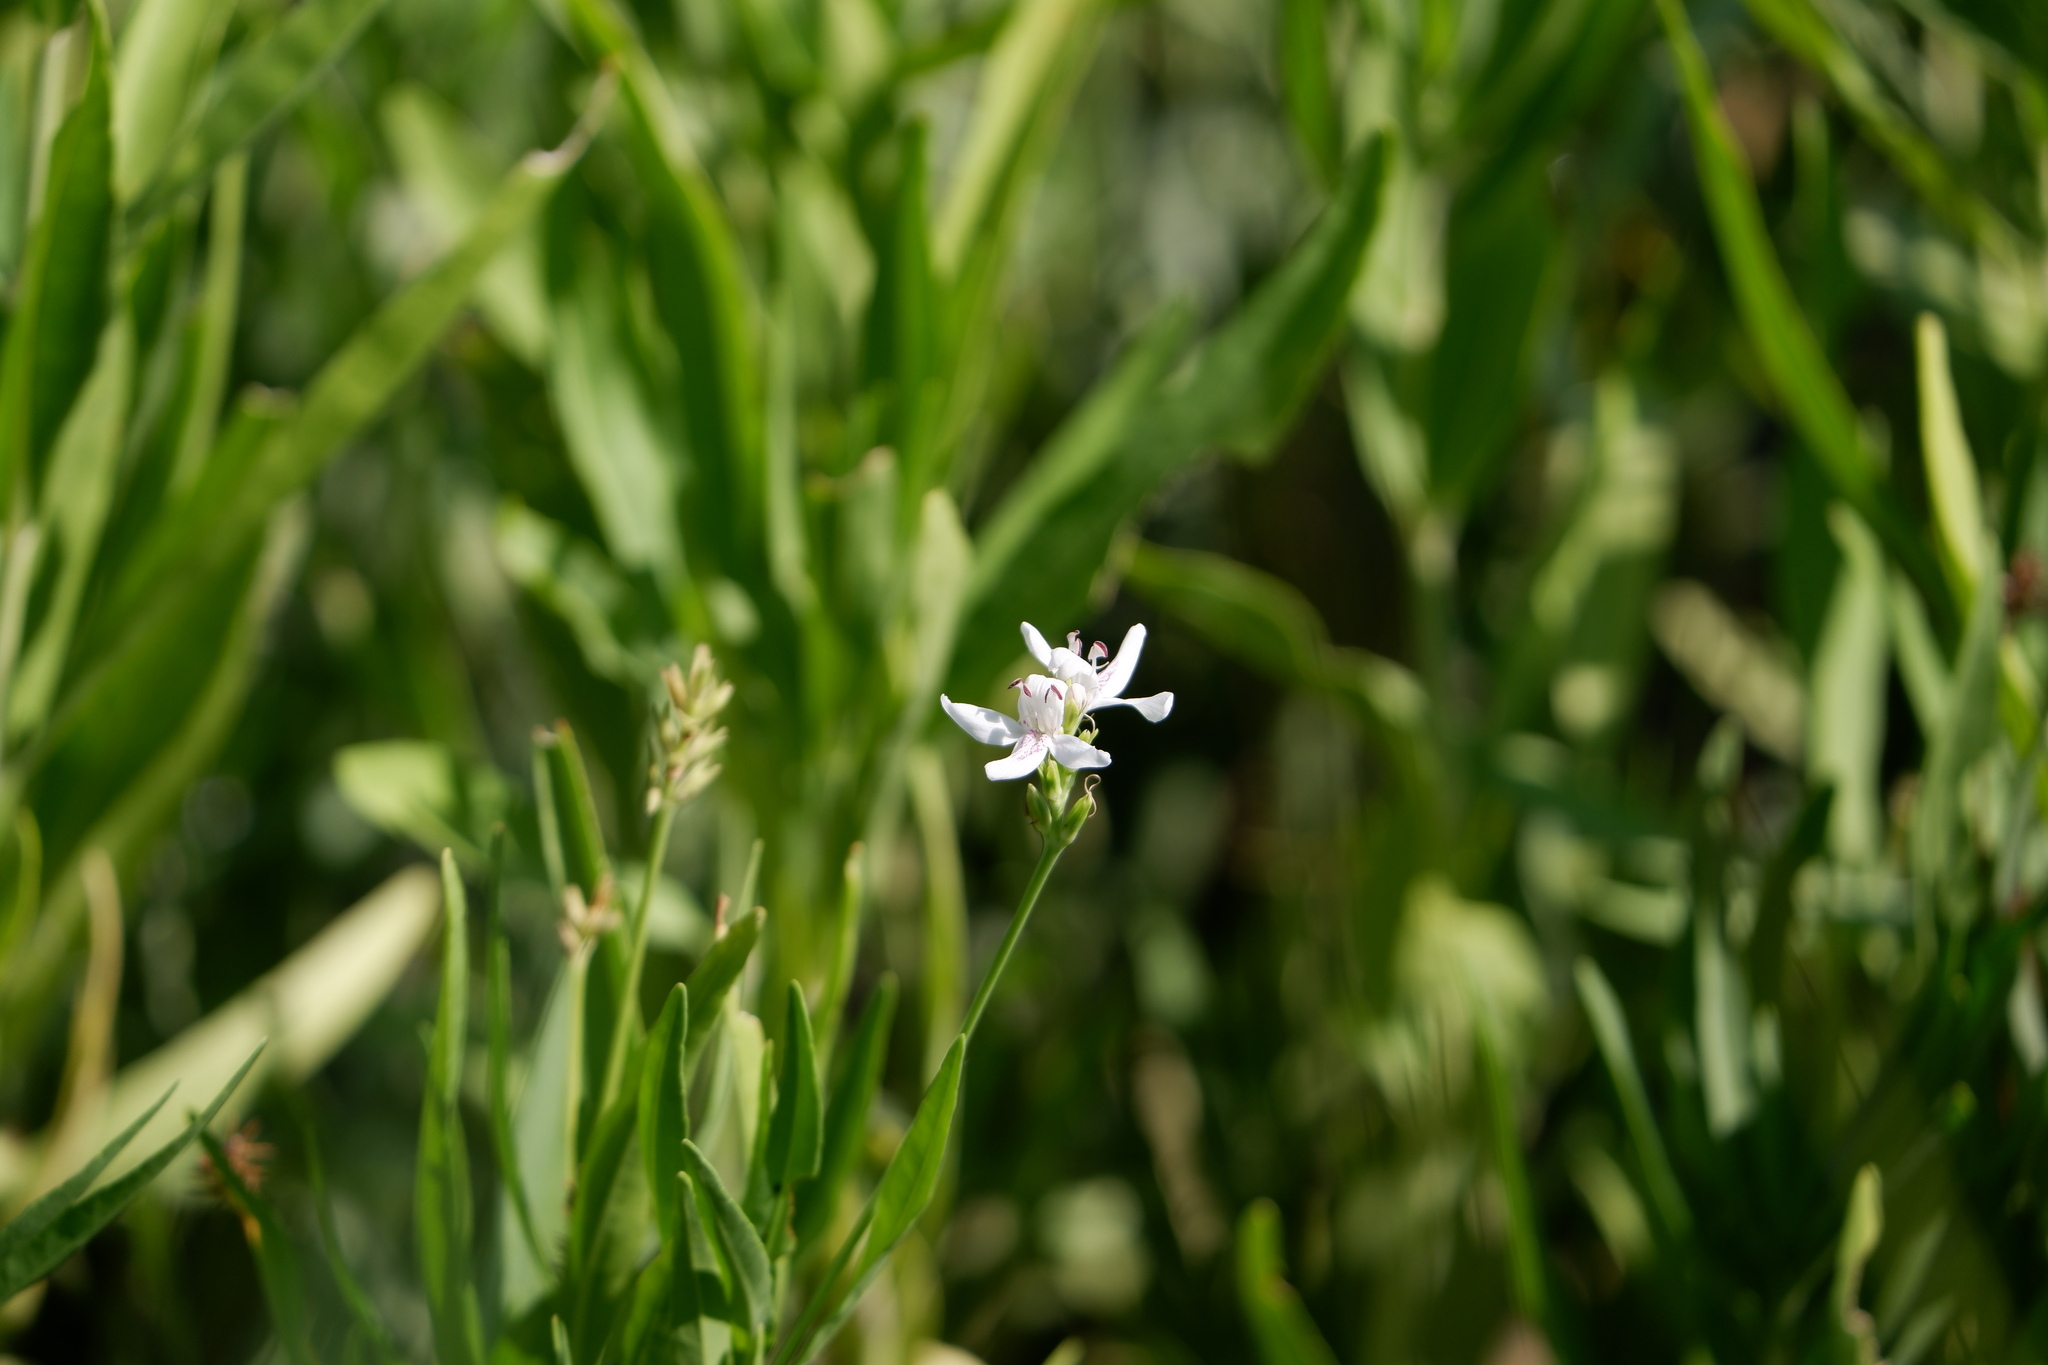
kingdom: Plantae
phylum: Tracheophyta
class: Magnoliopsida
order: Lamiales
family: Acanthaceae
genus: Dianthera
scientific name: Dianthera americana
